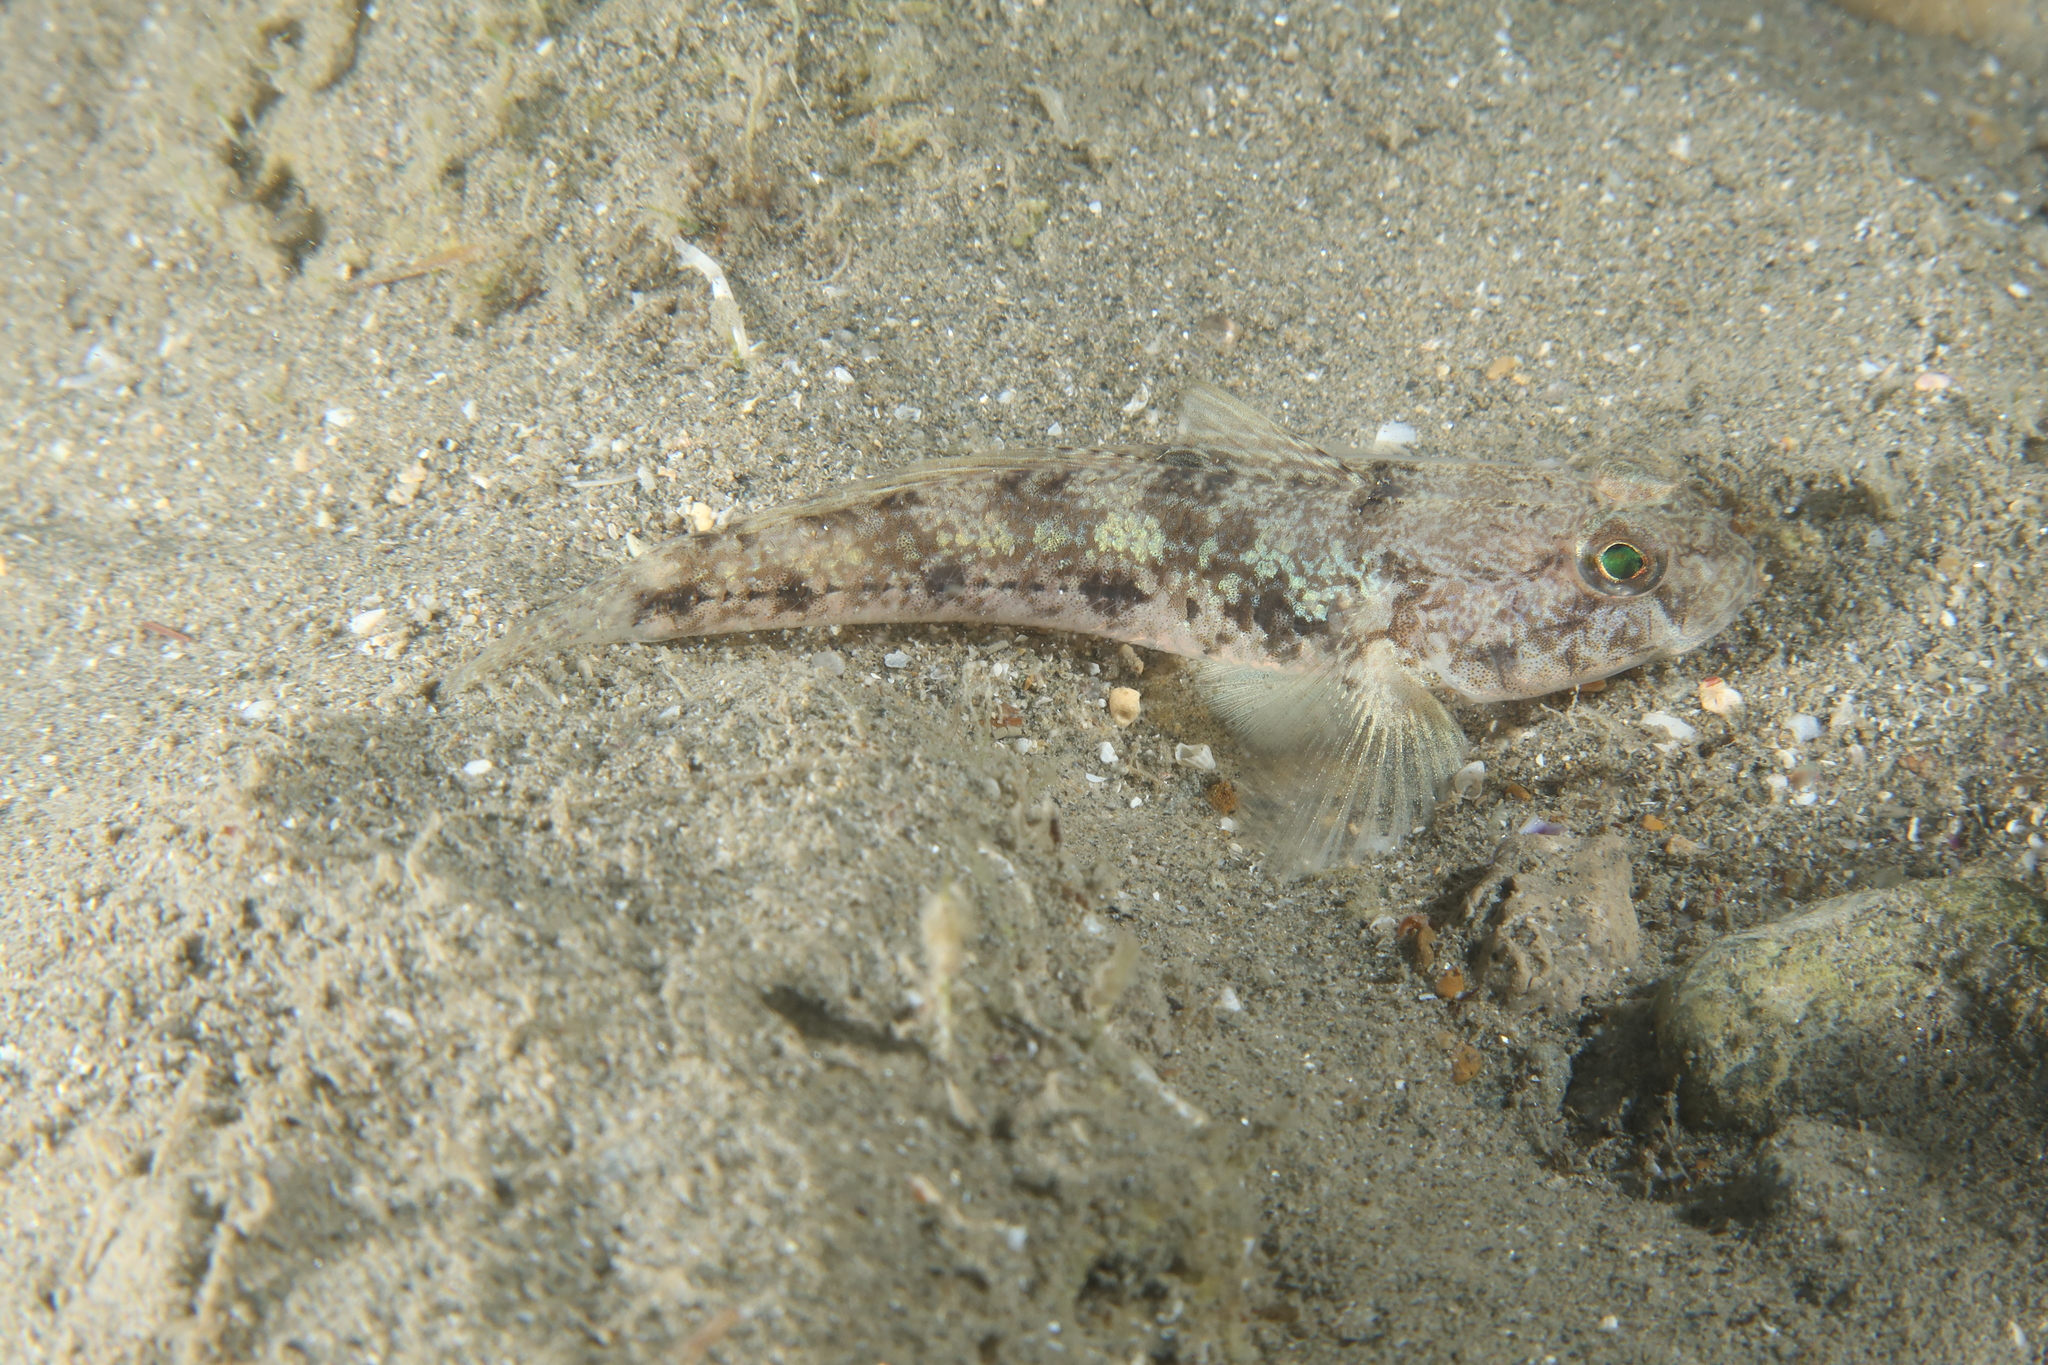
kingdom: Animalia
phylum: Chordata
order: Perciformes
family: Gobiidae
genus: Gobius
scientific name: Gobius niger
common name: Black goby
